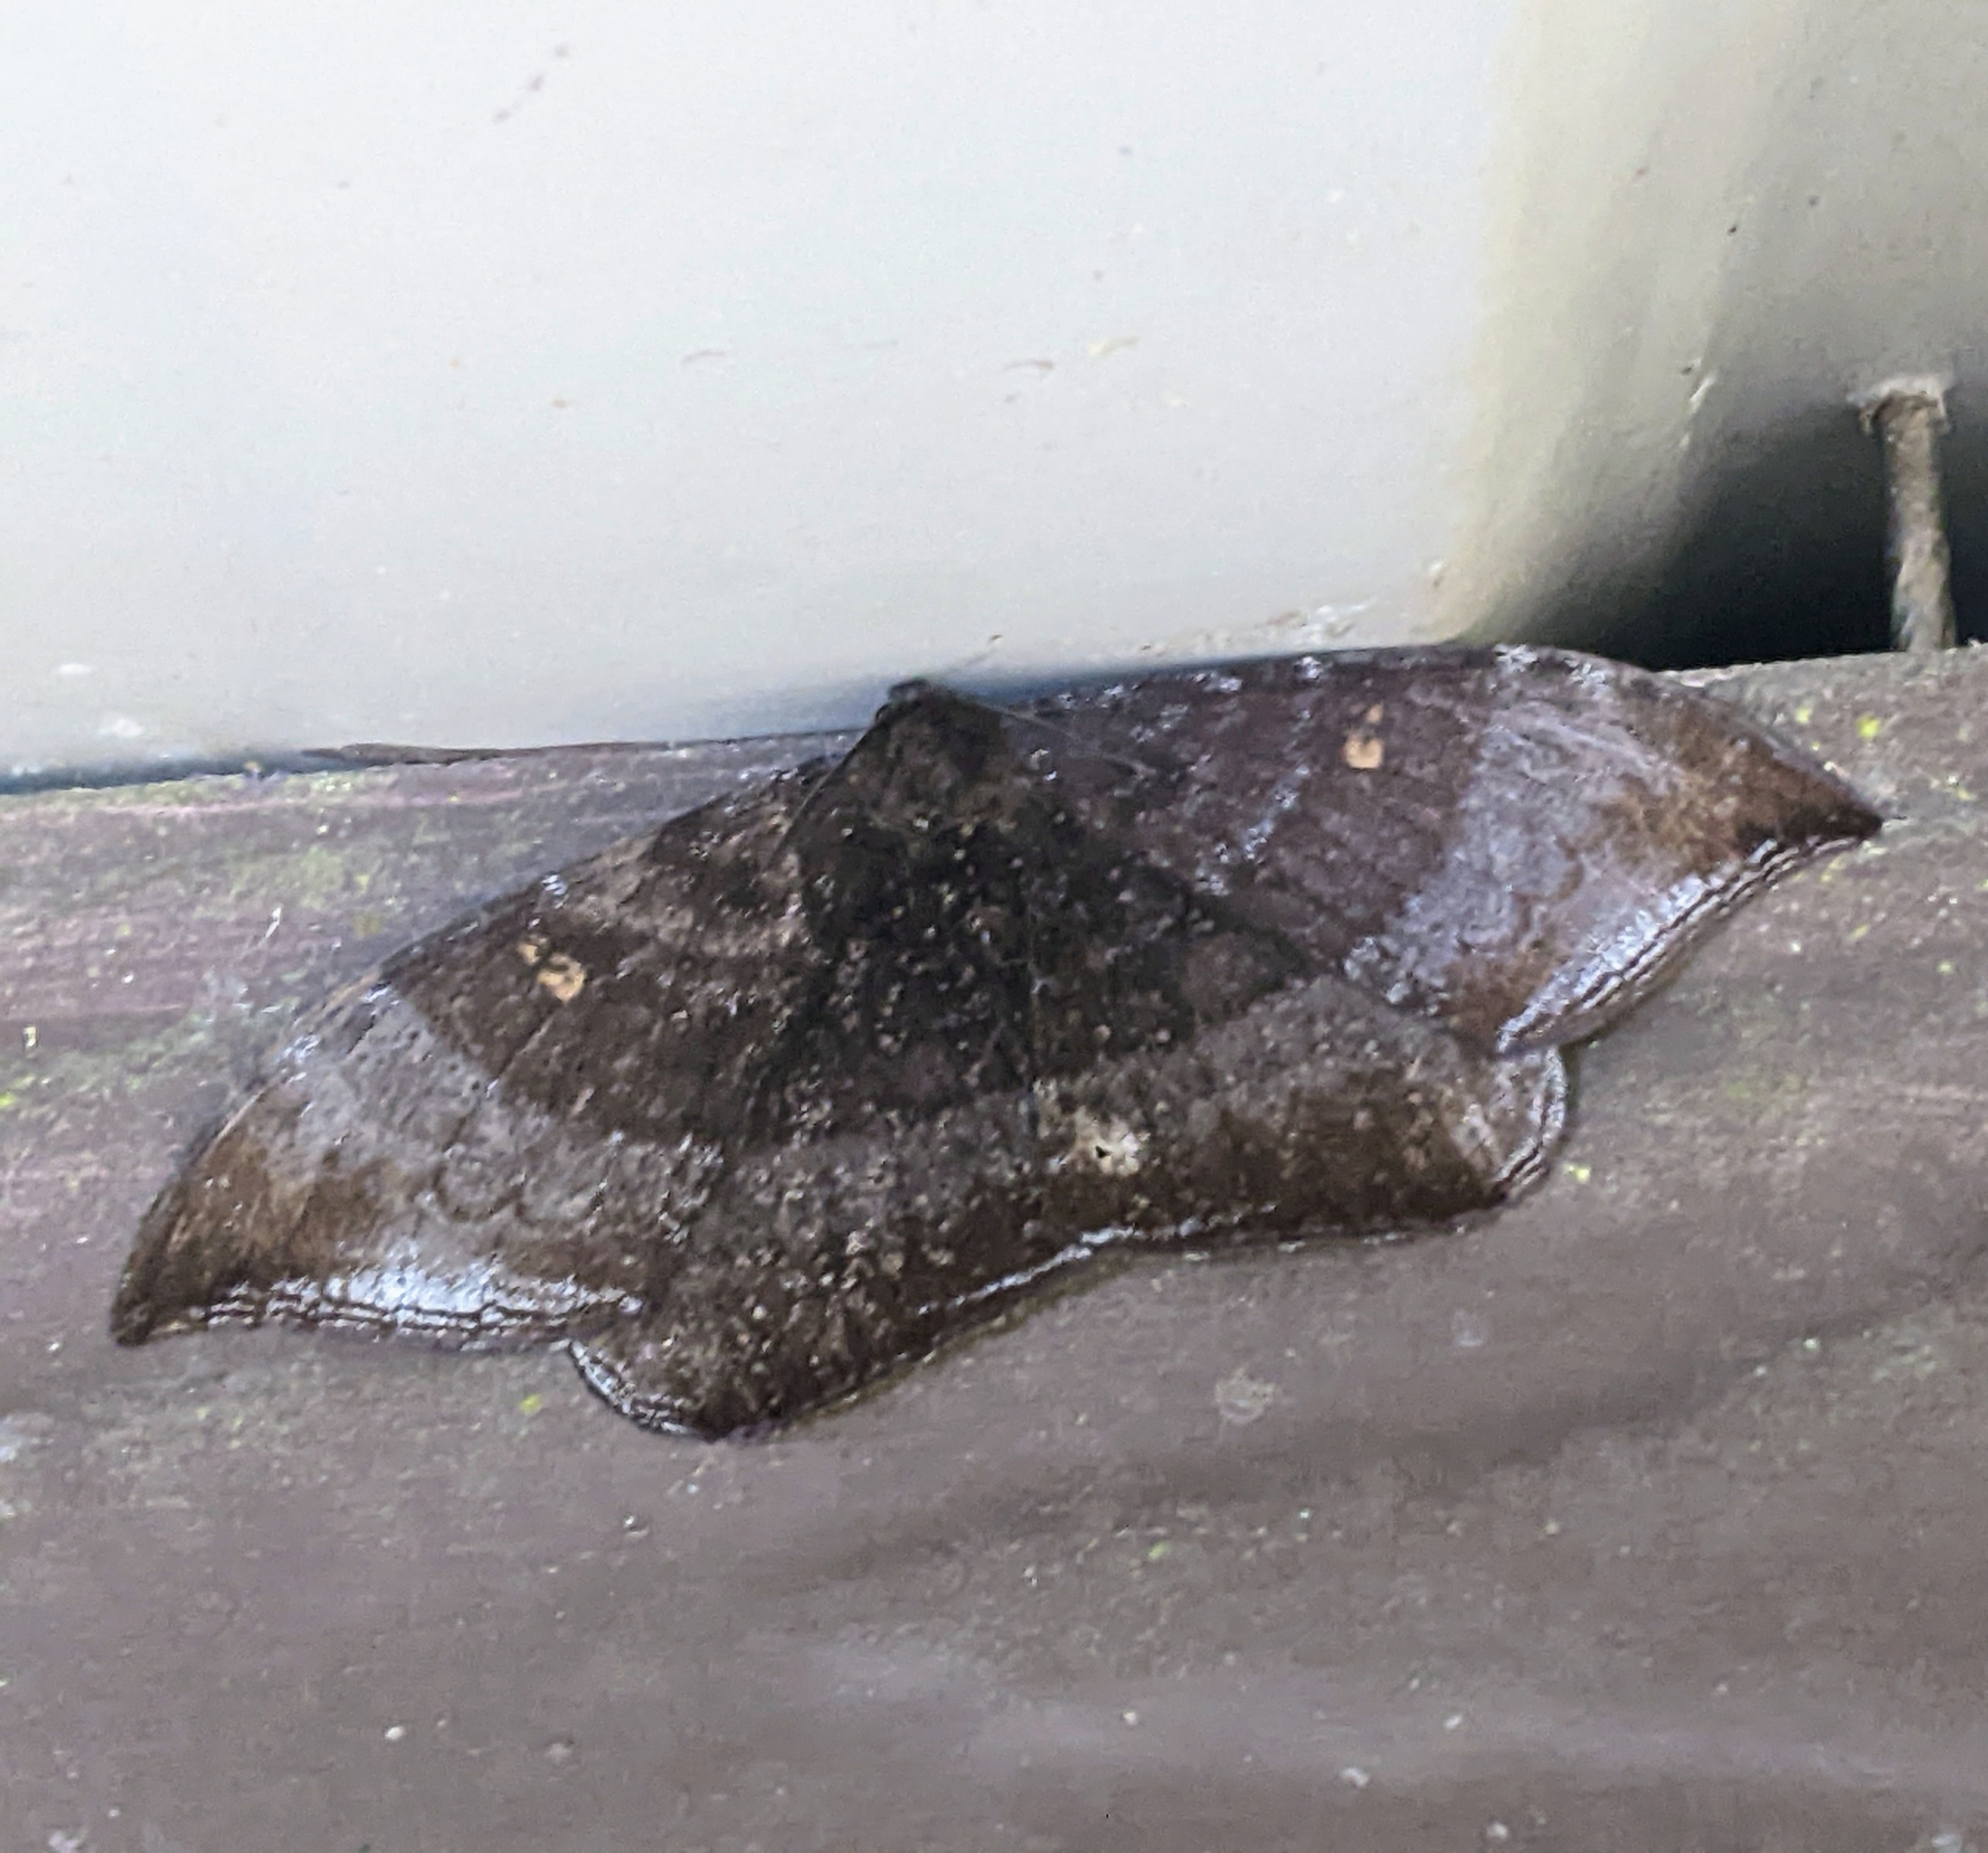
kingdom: Animalia
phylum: Arthropoda
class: Insecta
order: Lepidoptera
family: Drepanidae
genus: Cyclidia
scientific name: Cyclidia orciferaria
